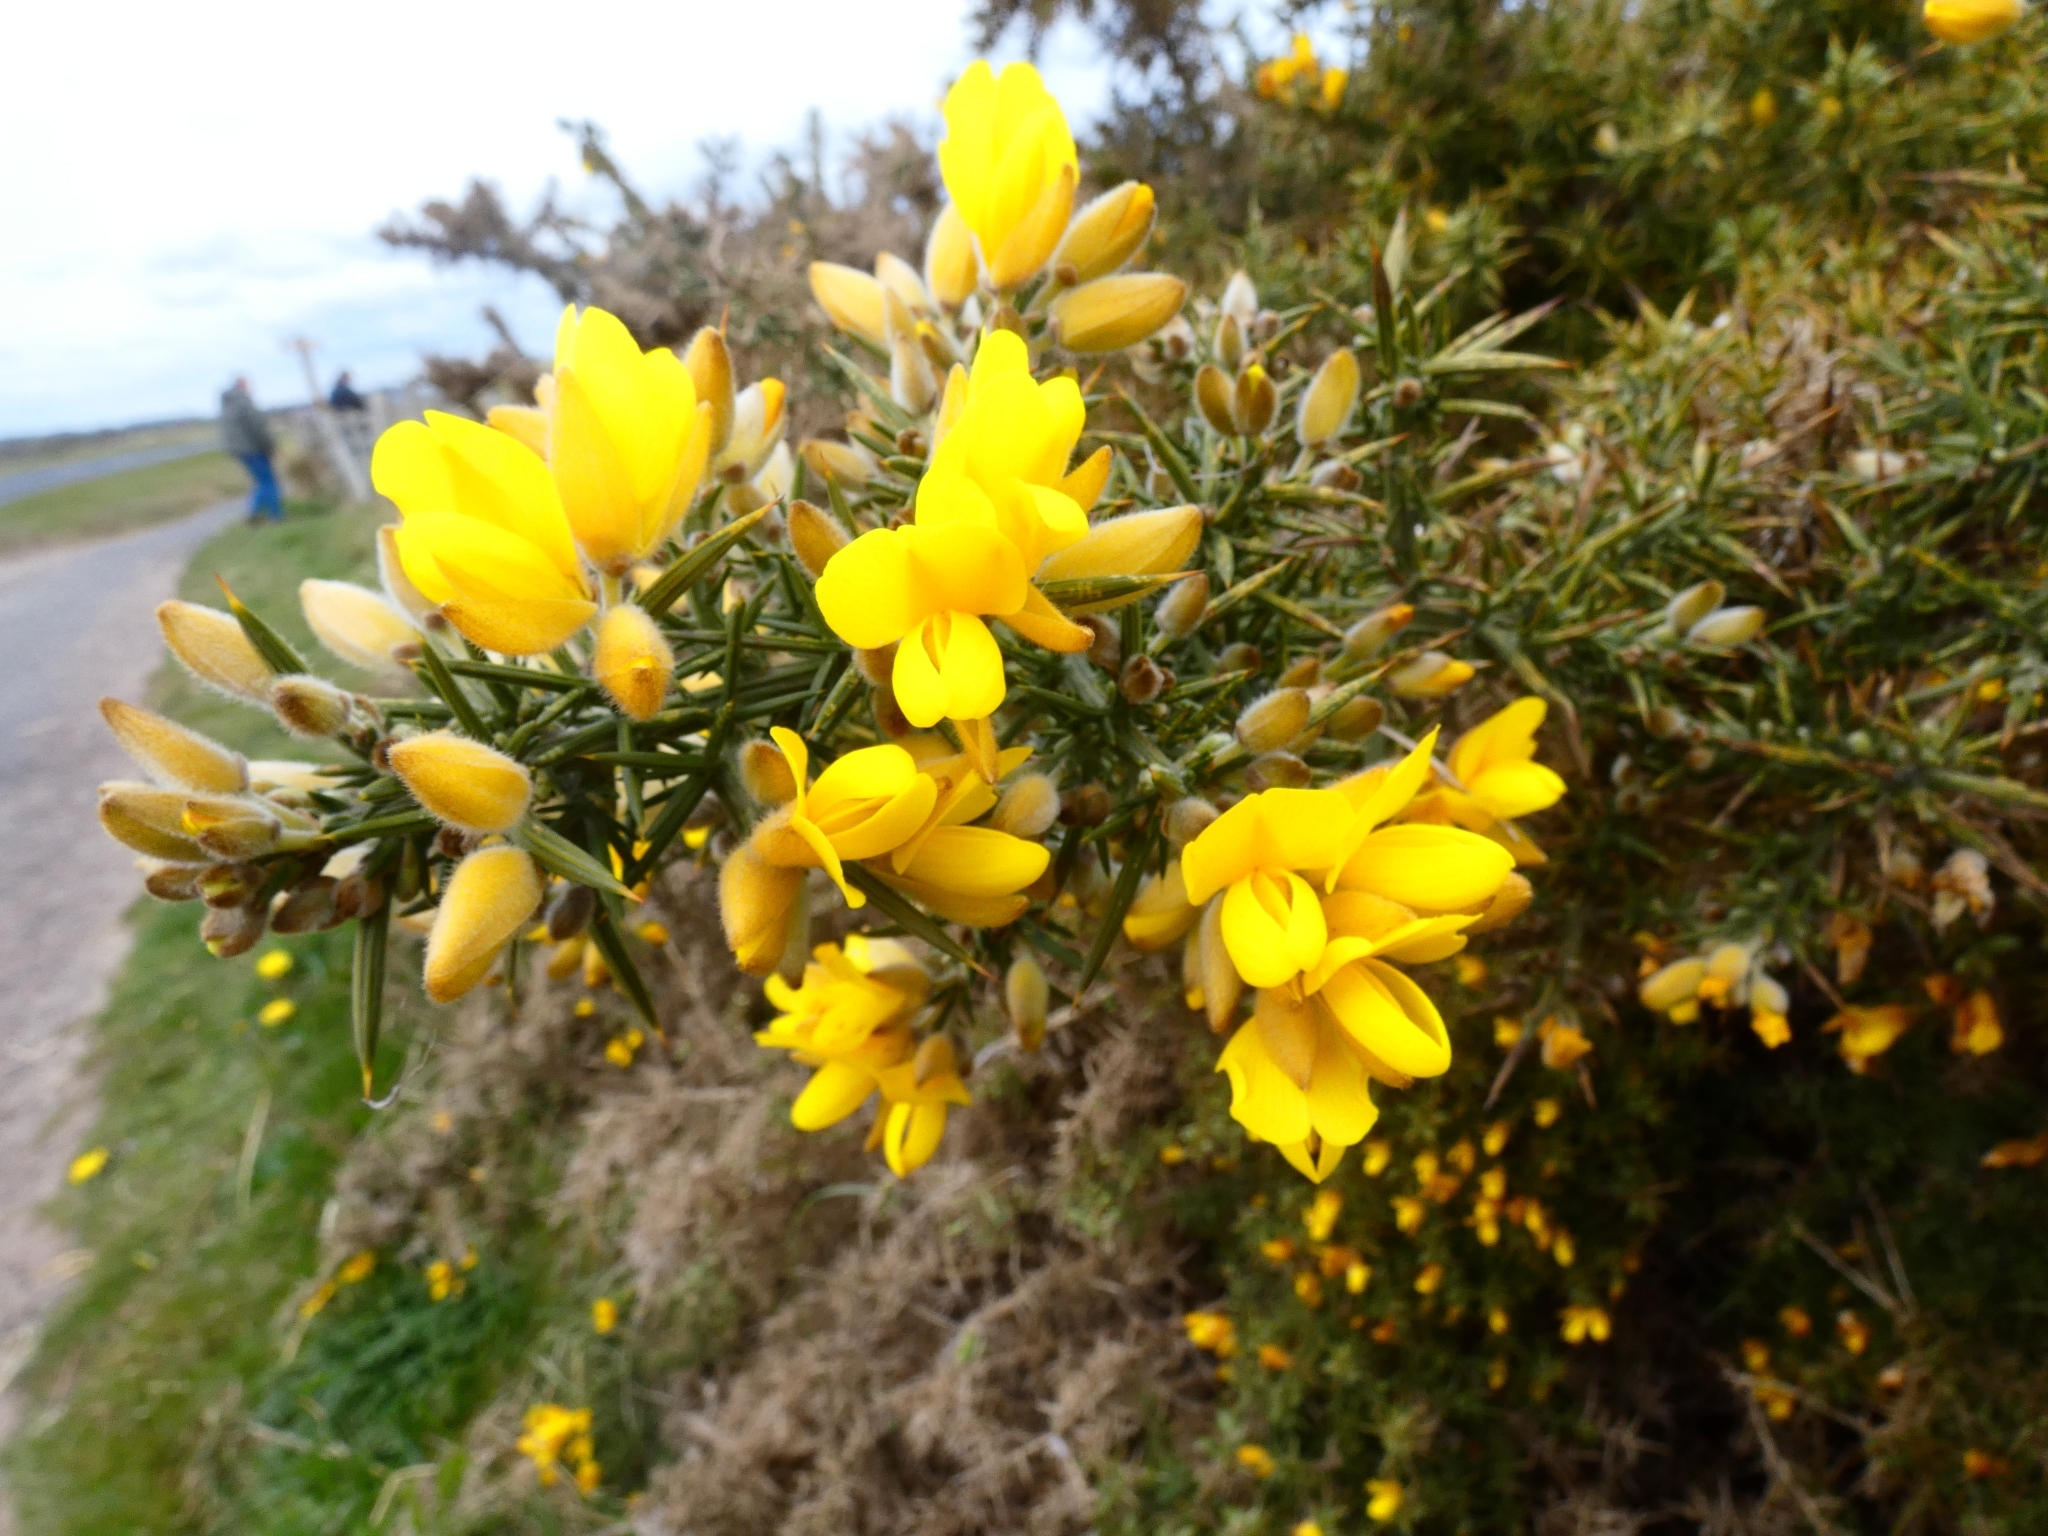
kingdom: Plantae
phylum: Tracheophyta
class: Magnoliopsida
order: Fabales
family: Fabaceae
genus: Ulex
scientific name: Ulex europaeus
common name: Common gorse
